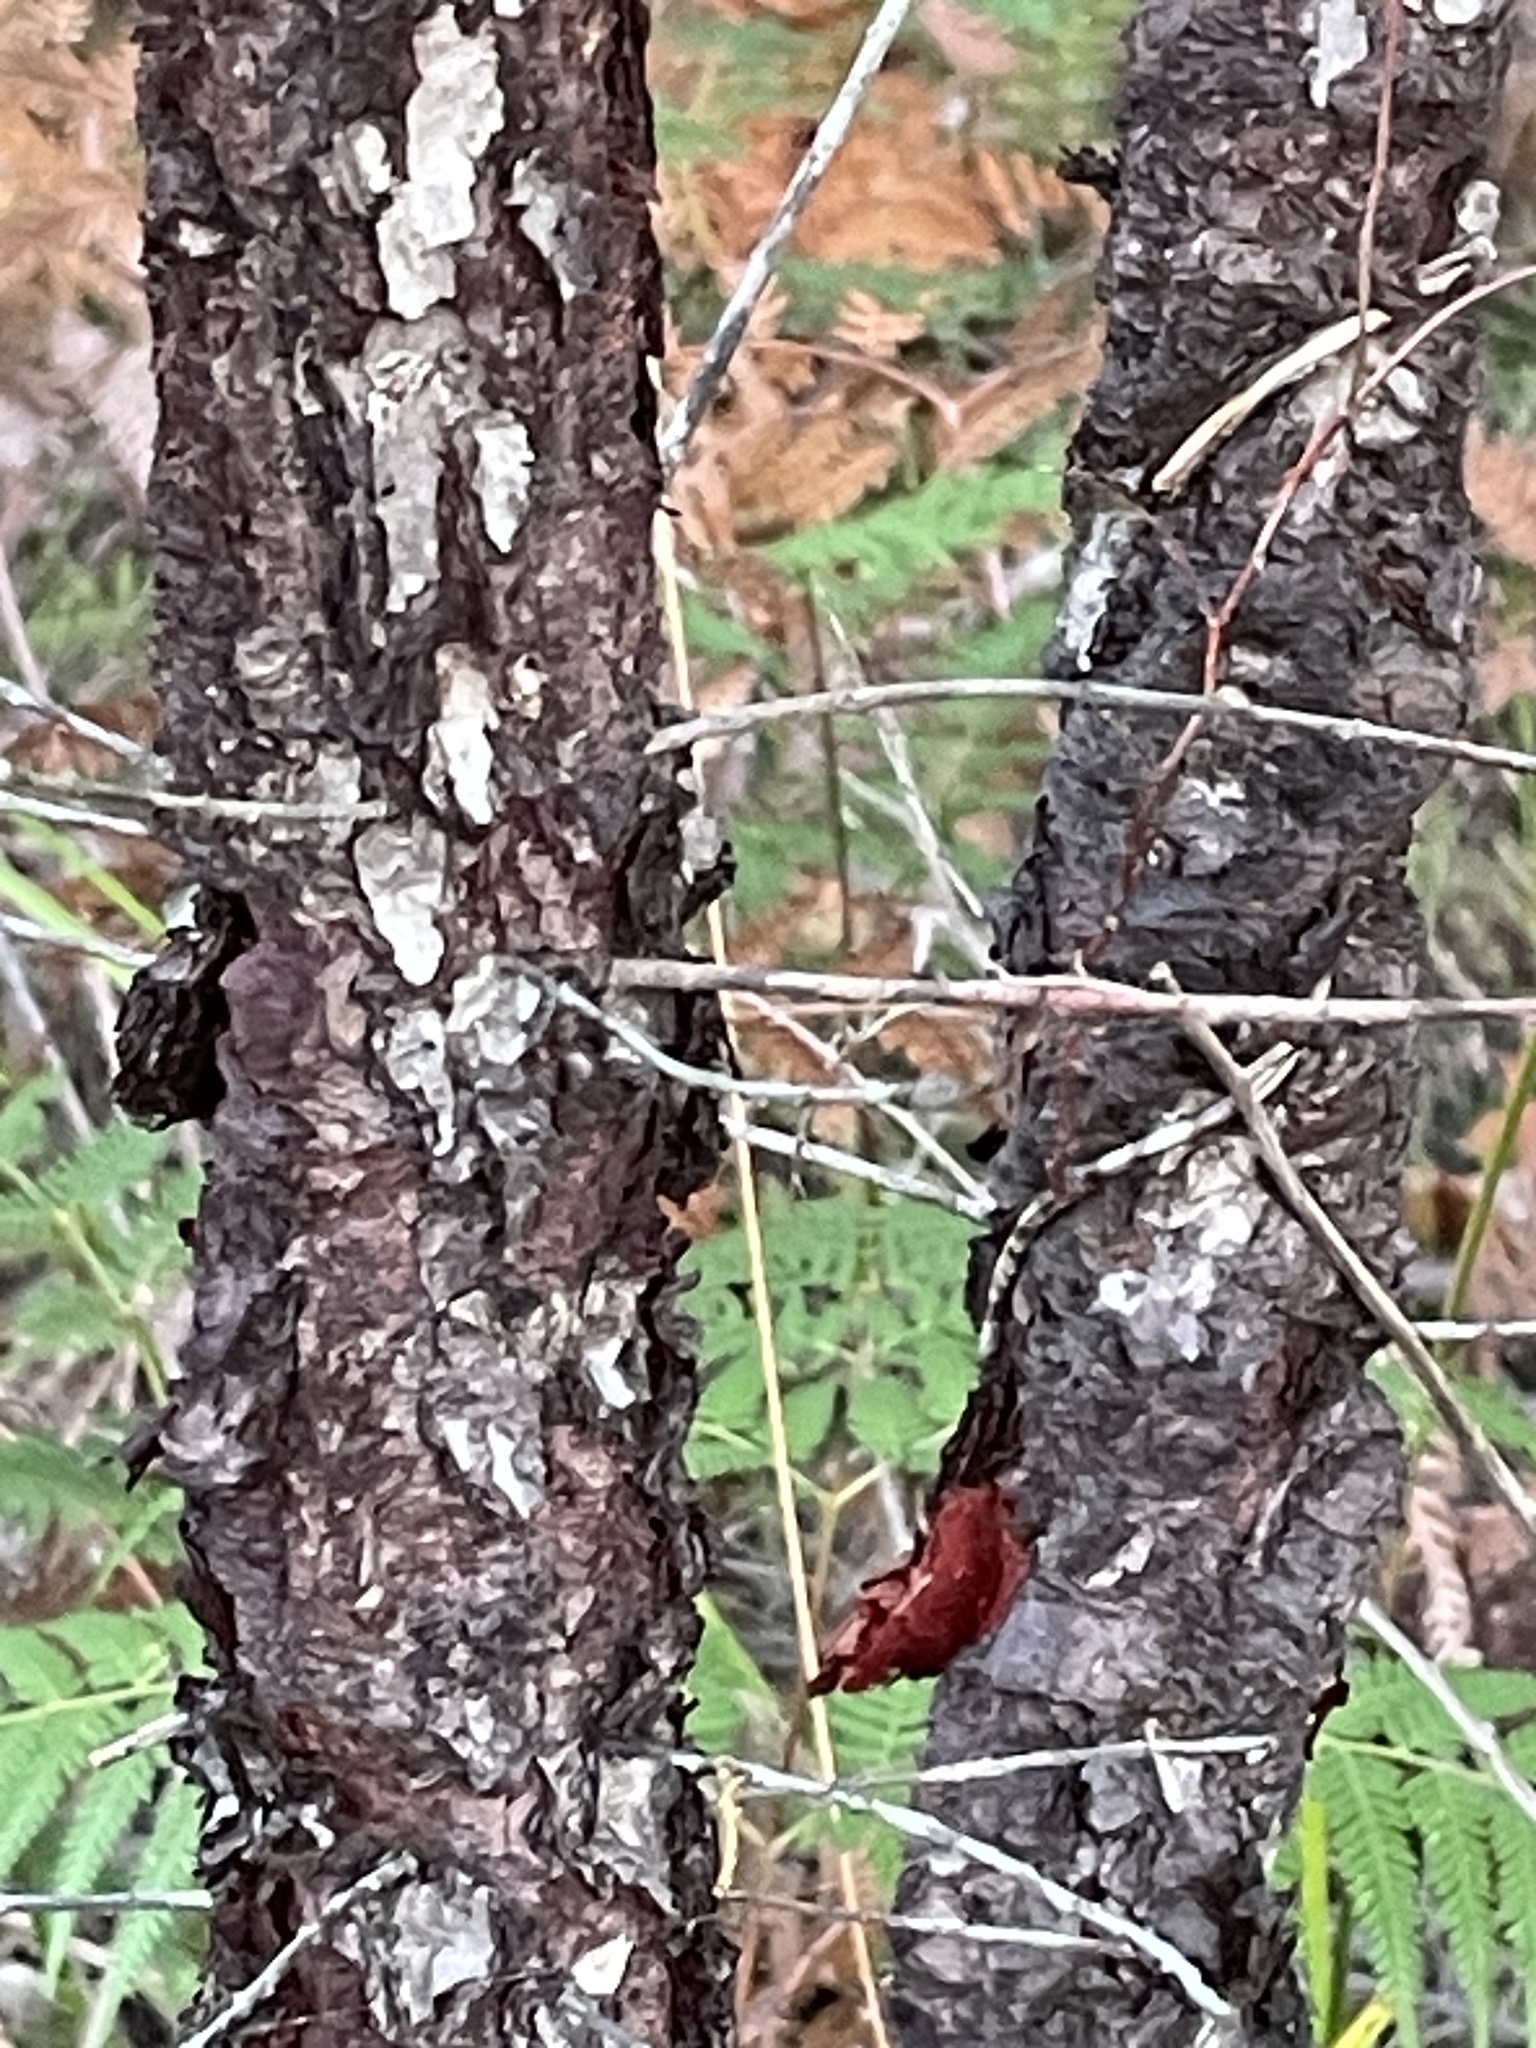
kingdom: Plantae
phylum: Tracheophyta
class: Magnoliopsida
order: Proteales
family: Proteaceae
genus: Persoonia
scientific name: Persoonia linearis
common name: Narrow-leaf geebung
